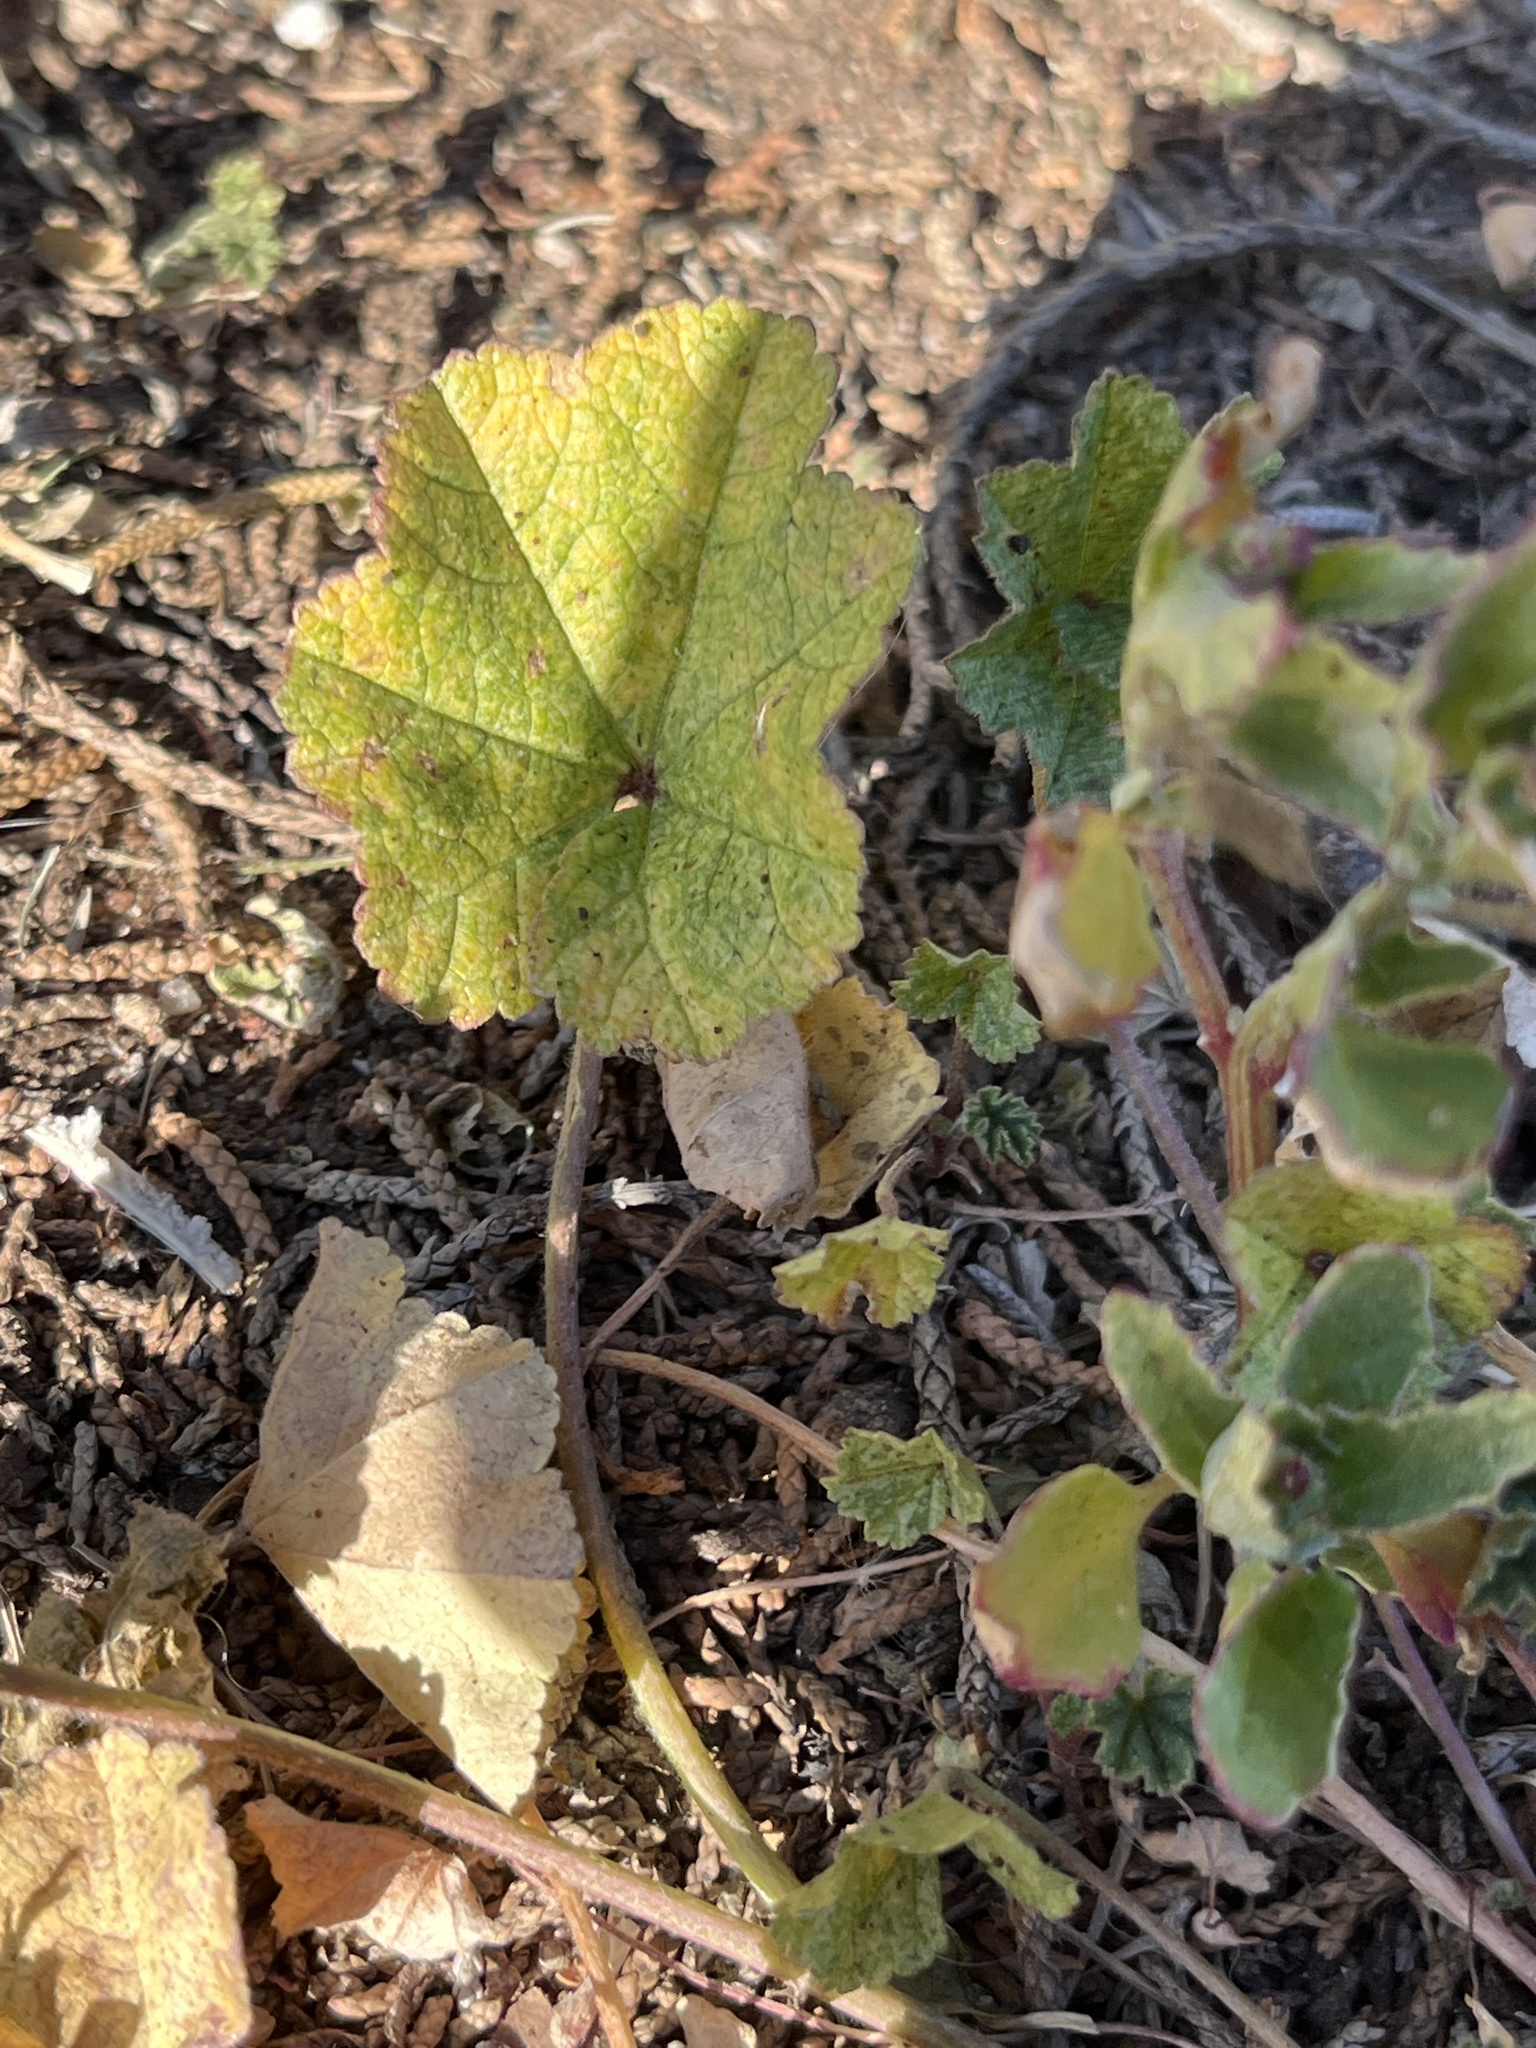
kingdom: Plantae
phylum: Tracheophyta
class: Magnoliopsida
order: Malvales
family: Malvaceae
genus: Malva
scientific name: Malva parviflora
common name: Least mallow
